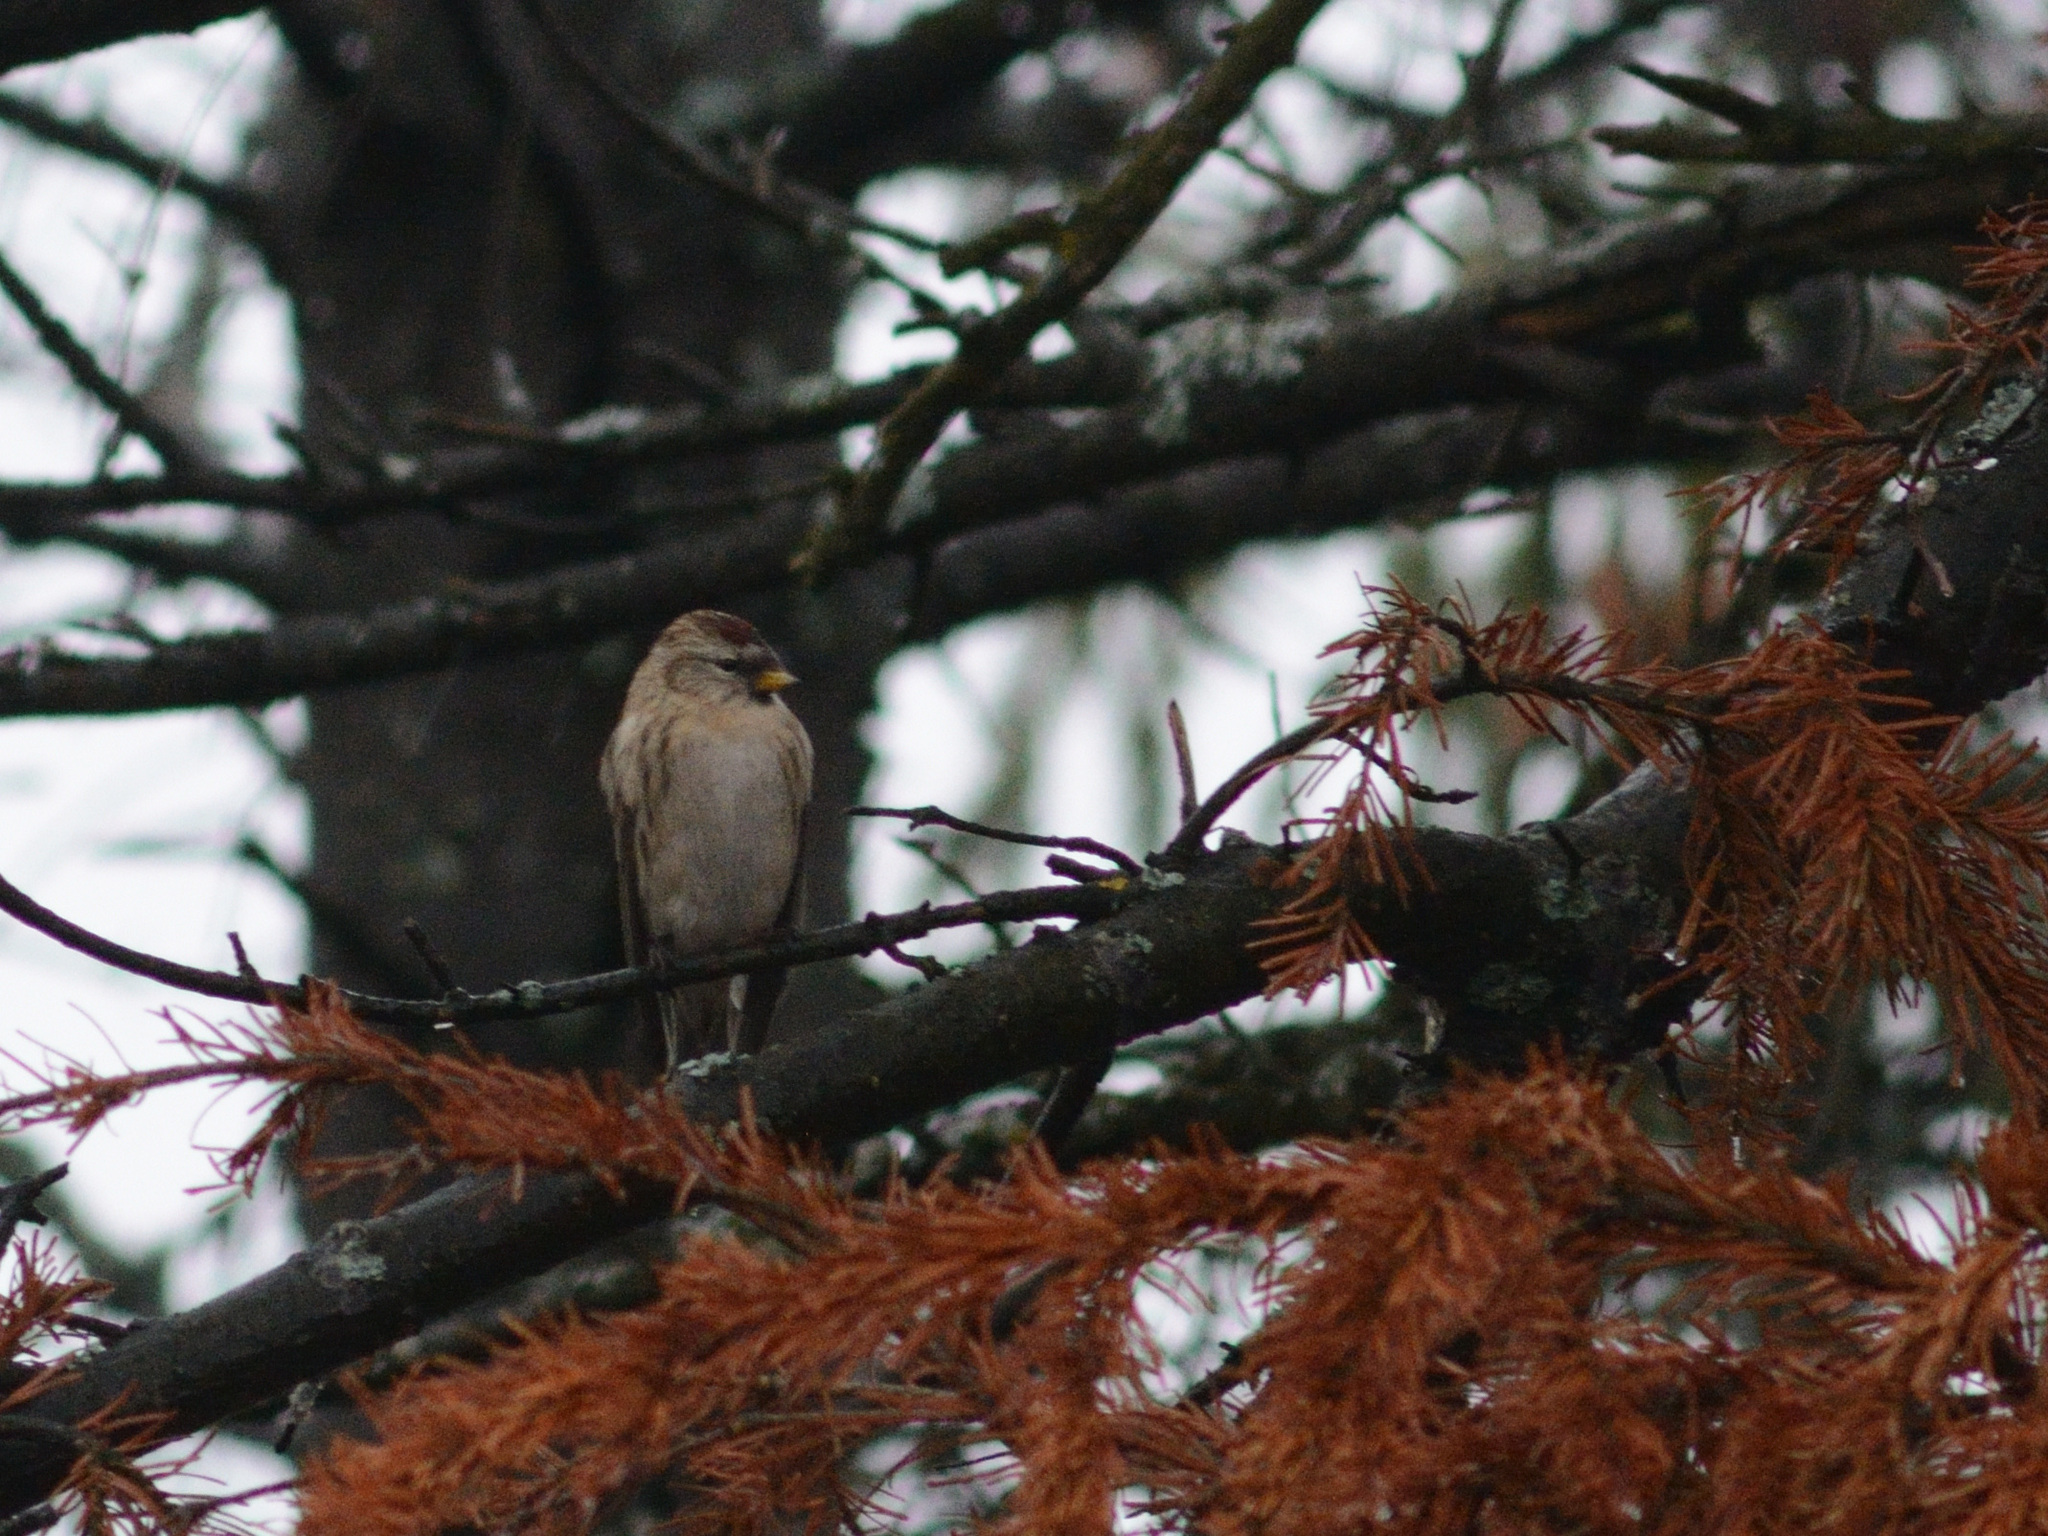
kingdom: Animalia
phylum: Chordata
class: Aves
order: Passeriformes
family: Fringillidae
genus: Acanthis
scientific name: Acanthis flammea
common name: Common redpoll
